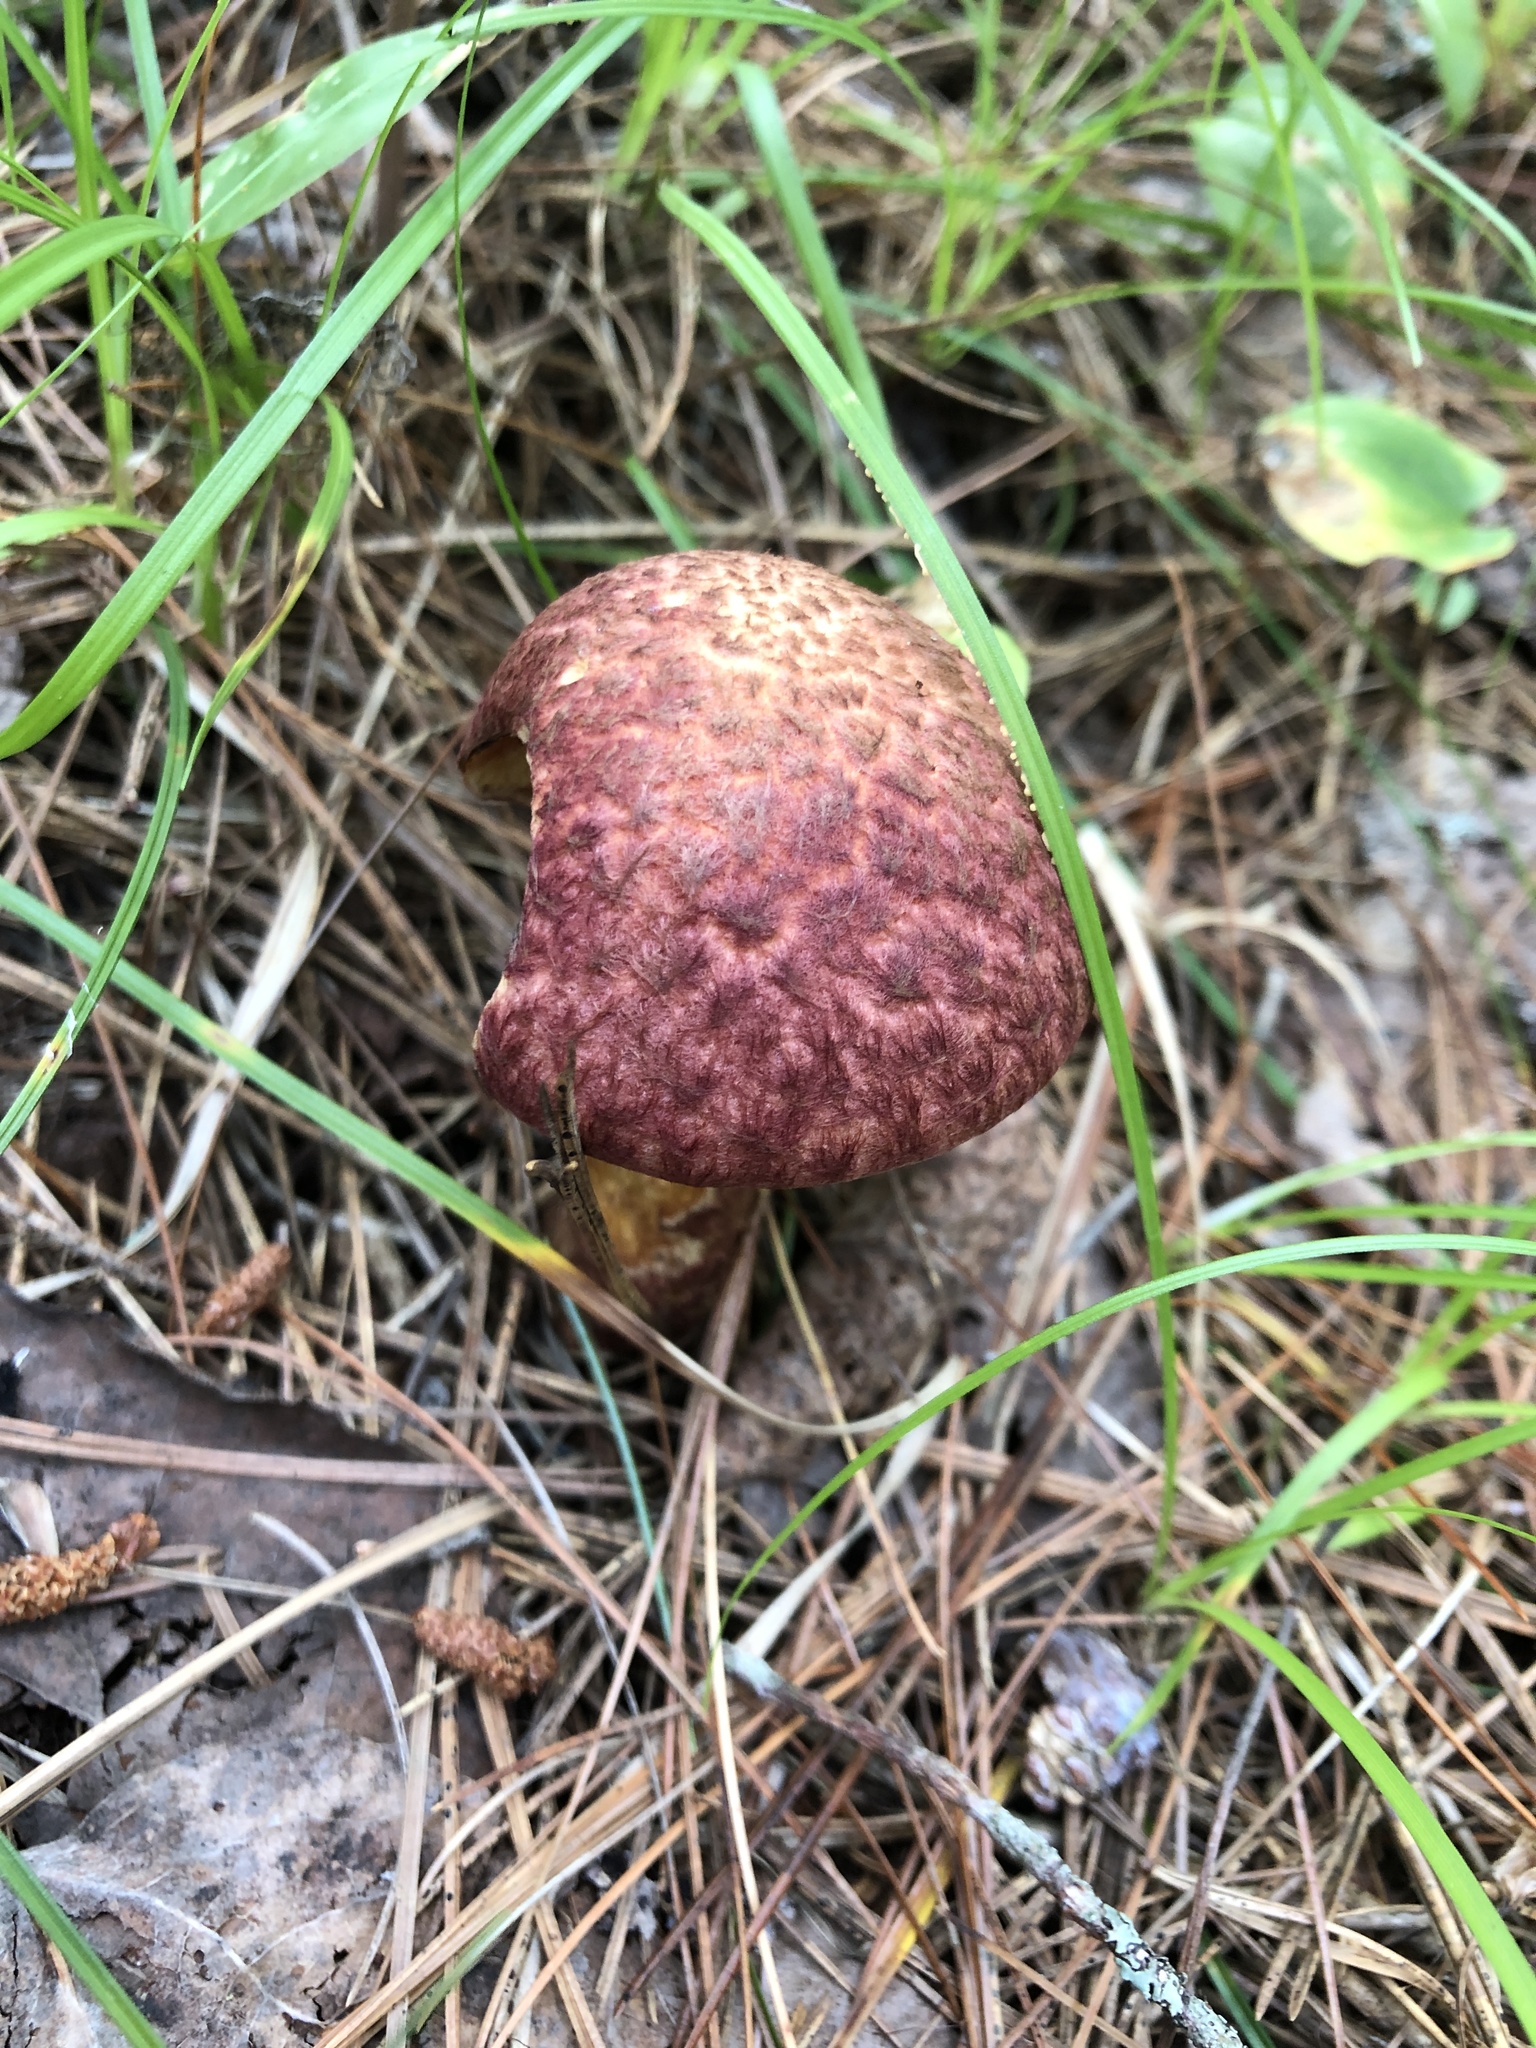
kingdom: Fungi
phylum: Basidiomycota
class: Agaricomycetes
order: Boletales
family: Suillaceae
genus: Suillus
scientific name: Suillus spraguei
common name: Painted suillus
